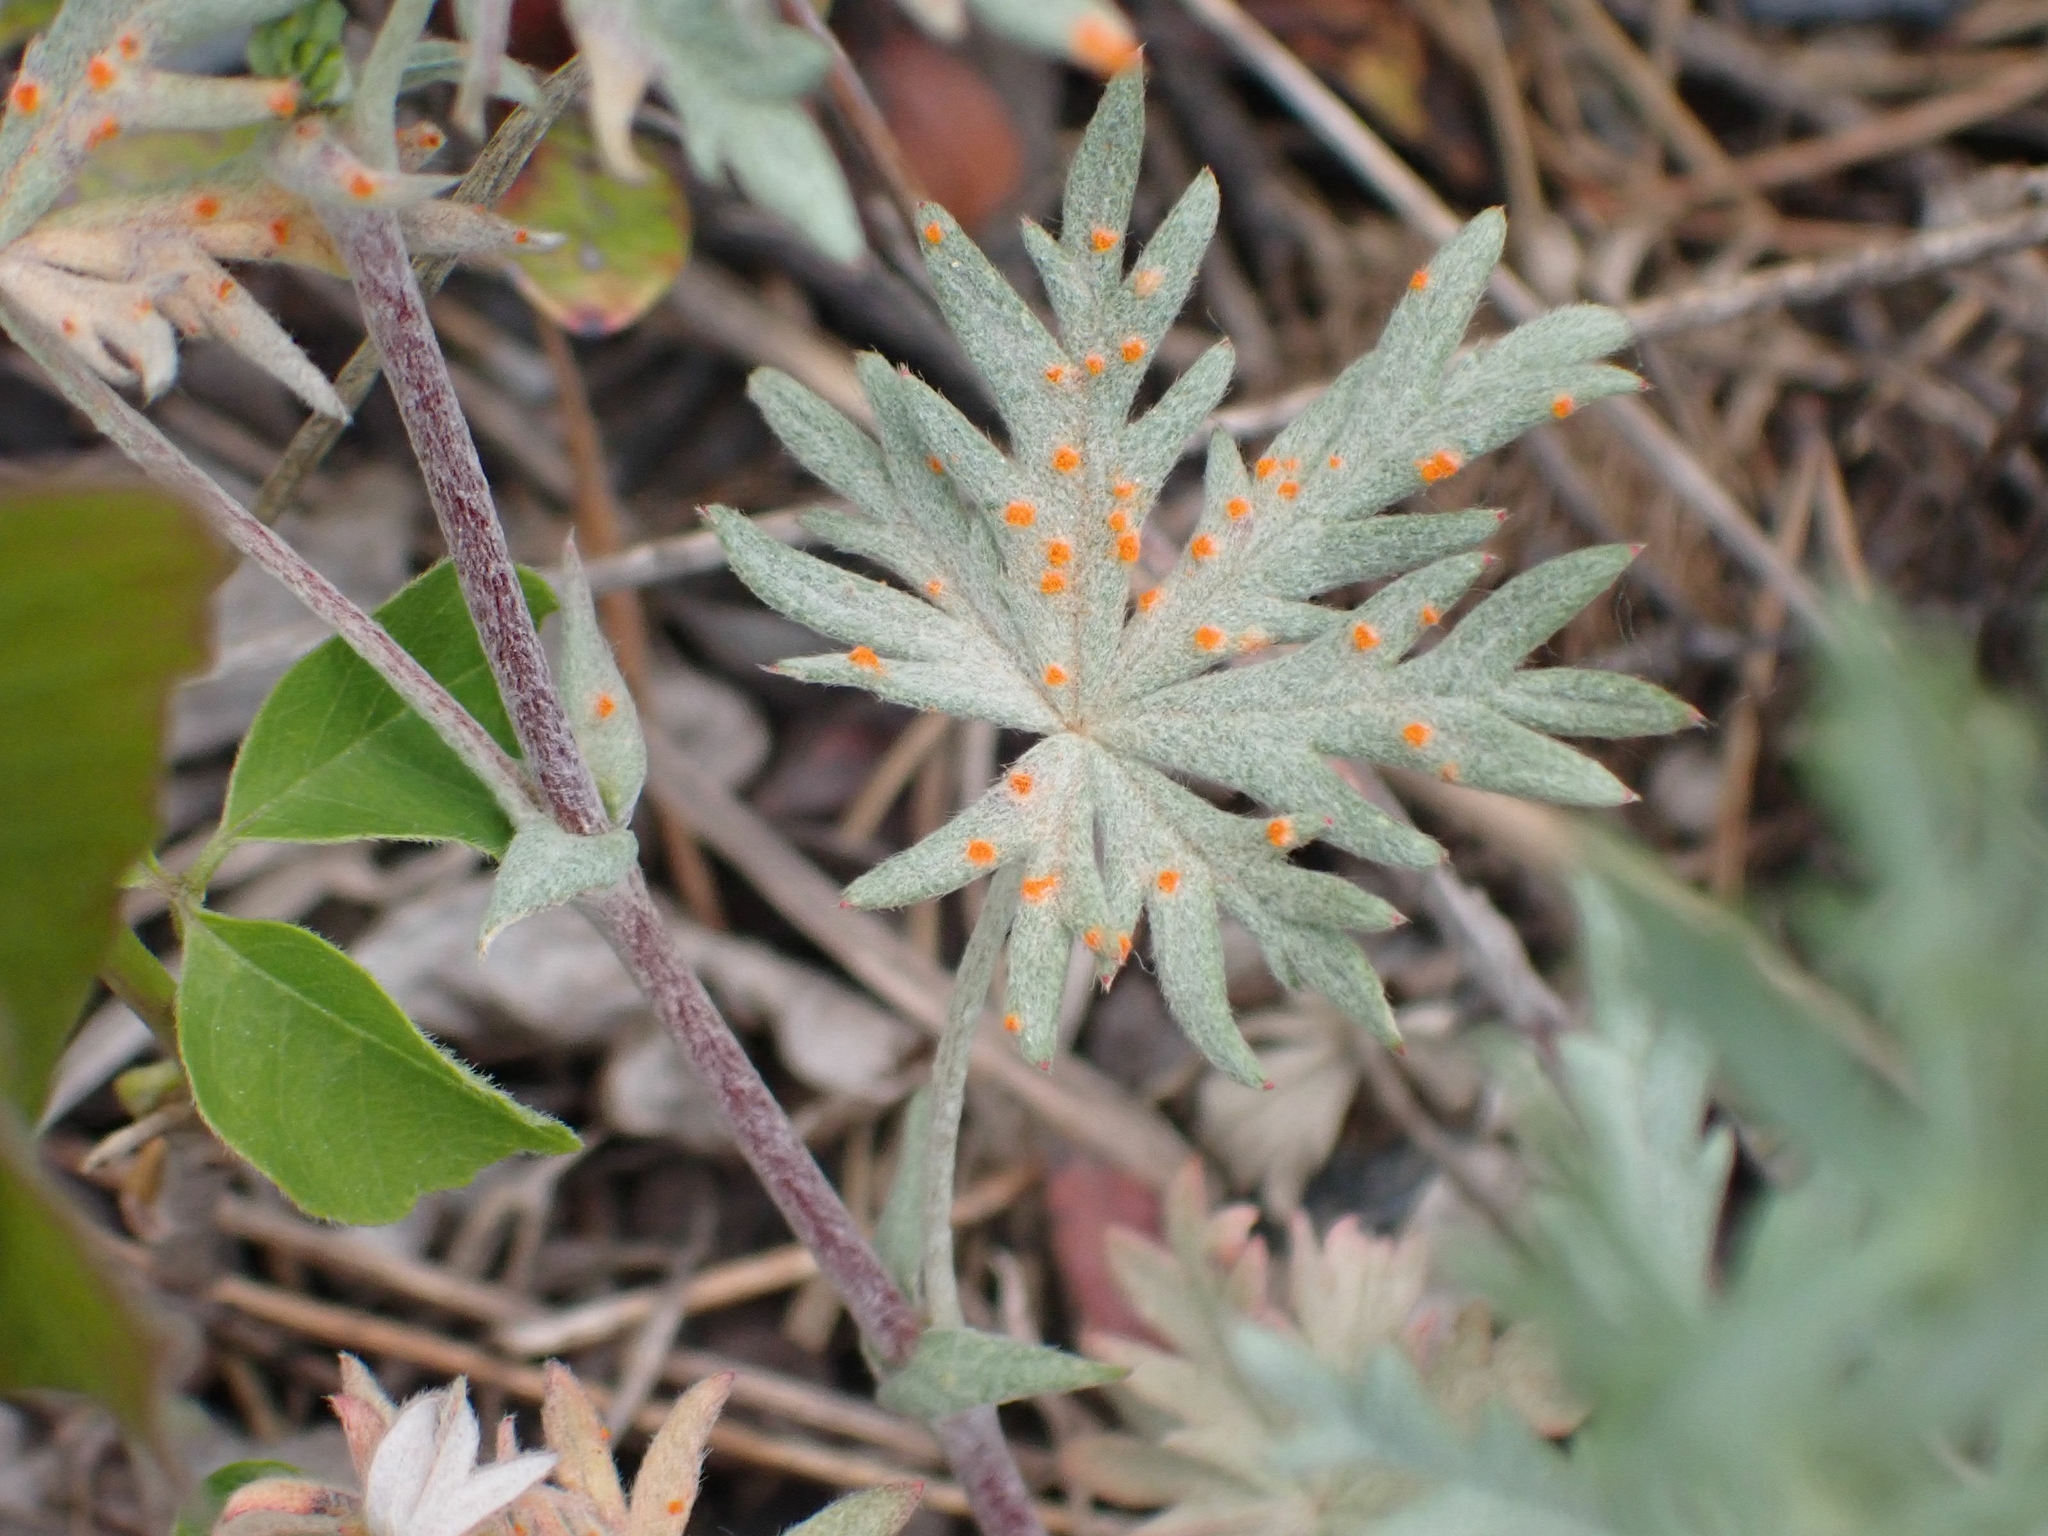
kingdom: Fungi
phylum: Basidiomycota
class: Pucciniomycetes
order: Pucciniales
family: Phragmidiaceae
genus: Phragmidium
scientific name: Phragmidium potentillae
